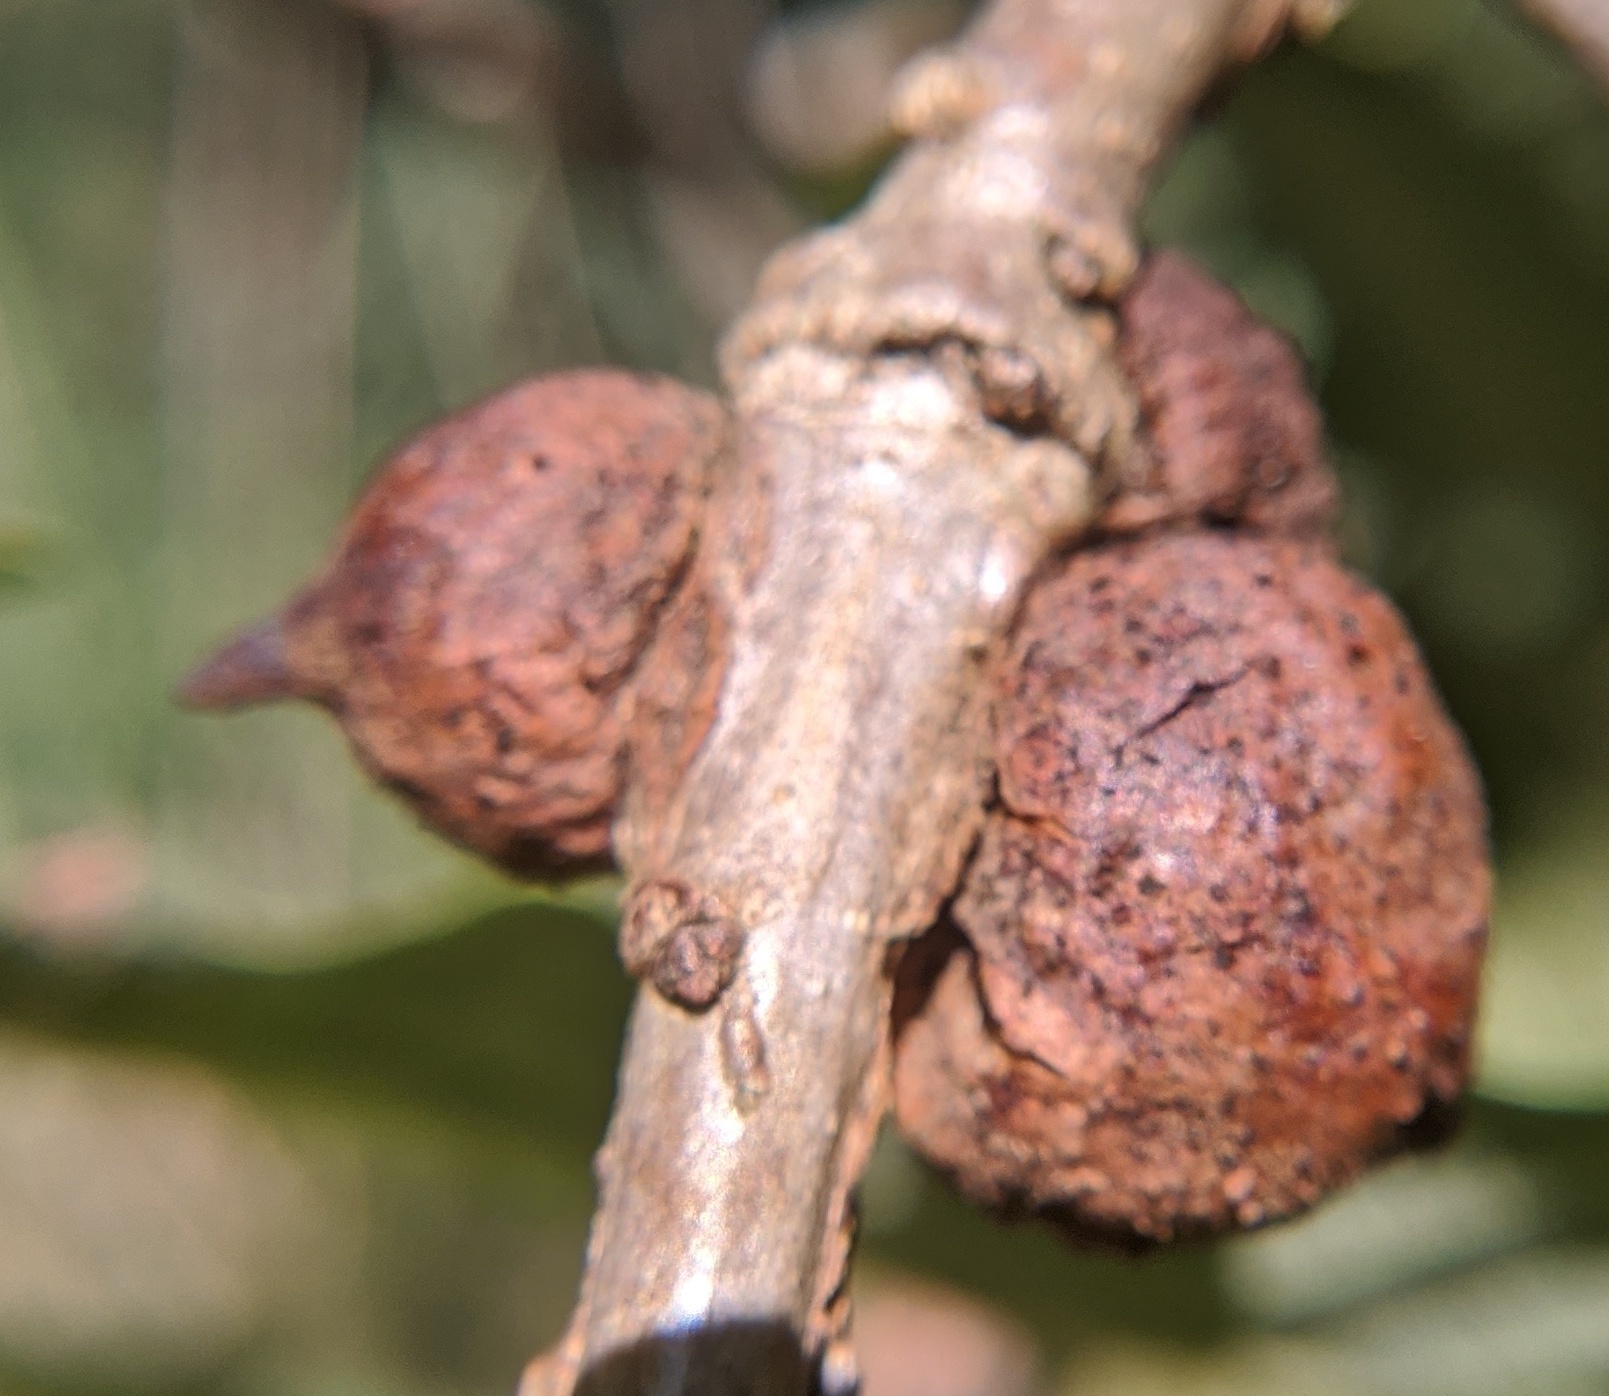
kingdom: Animalia
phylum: Arthropoda
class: Insecta
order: Hymenoptera
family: Cynipidae
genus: Disholcaspis
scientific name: Disholcaspis
